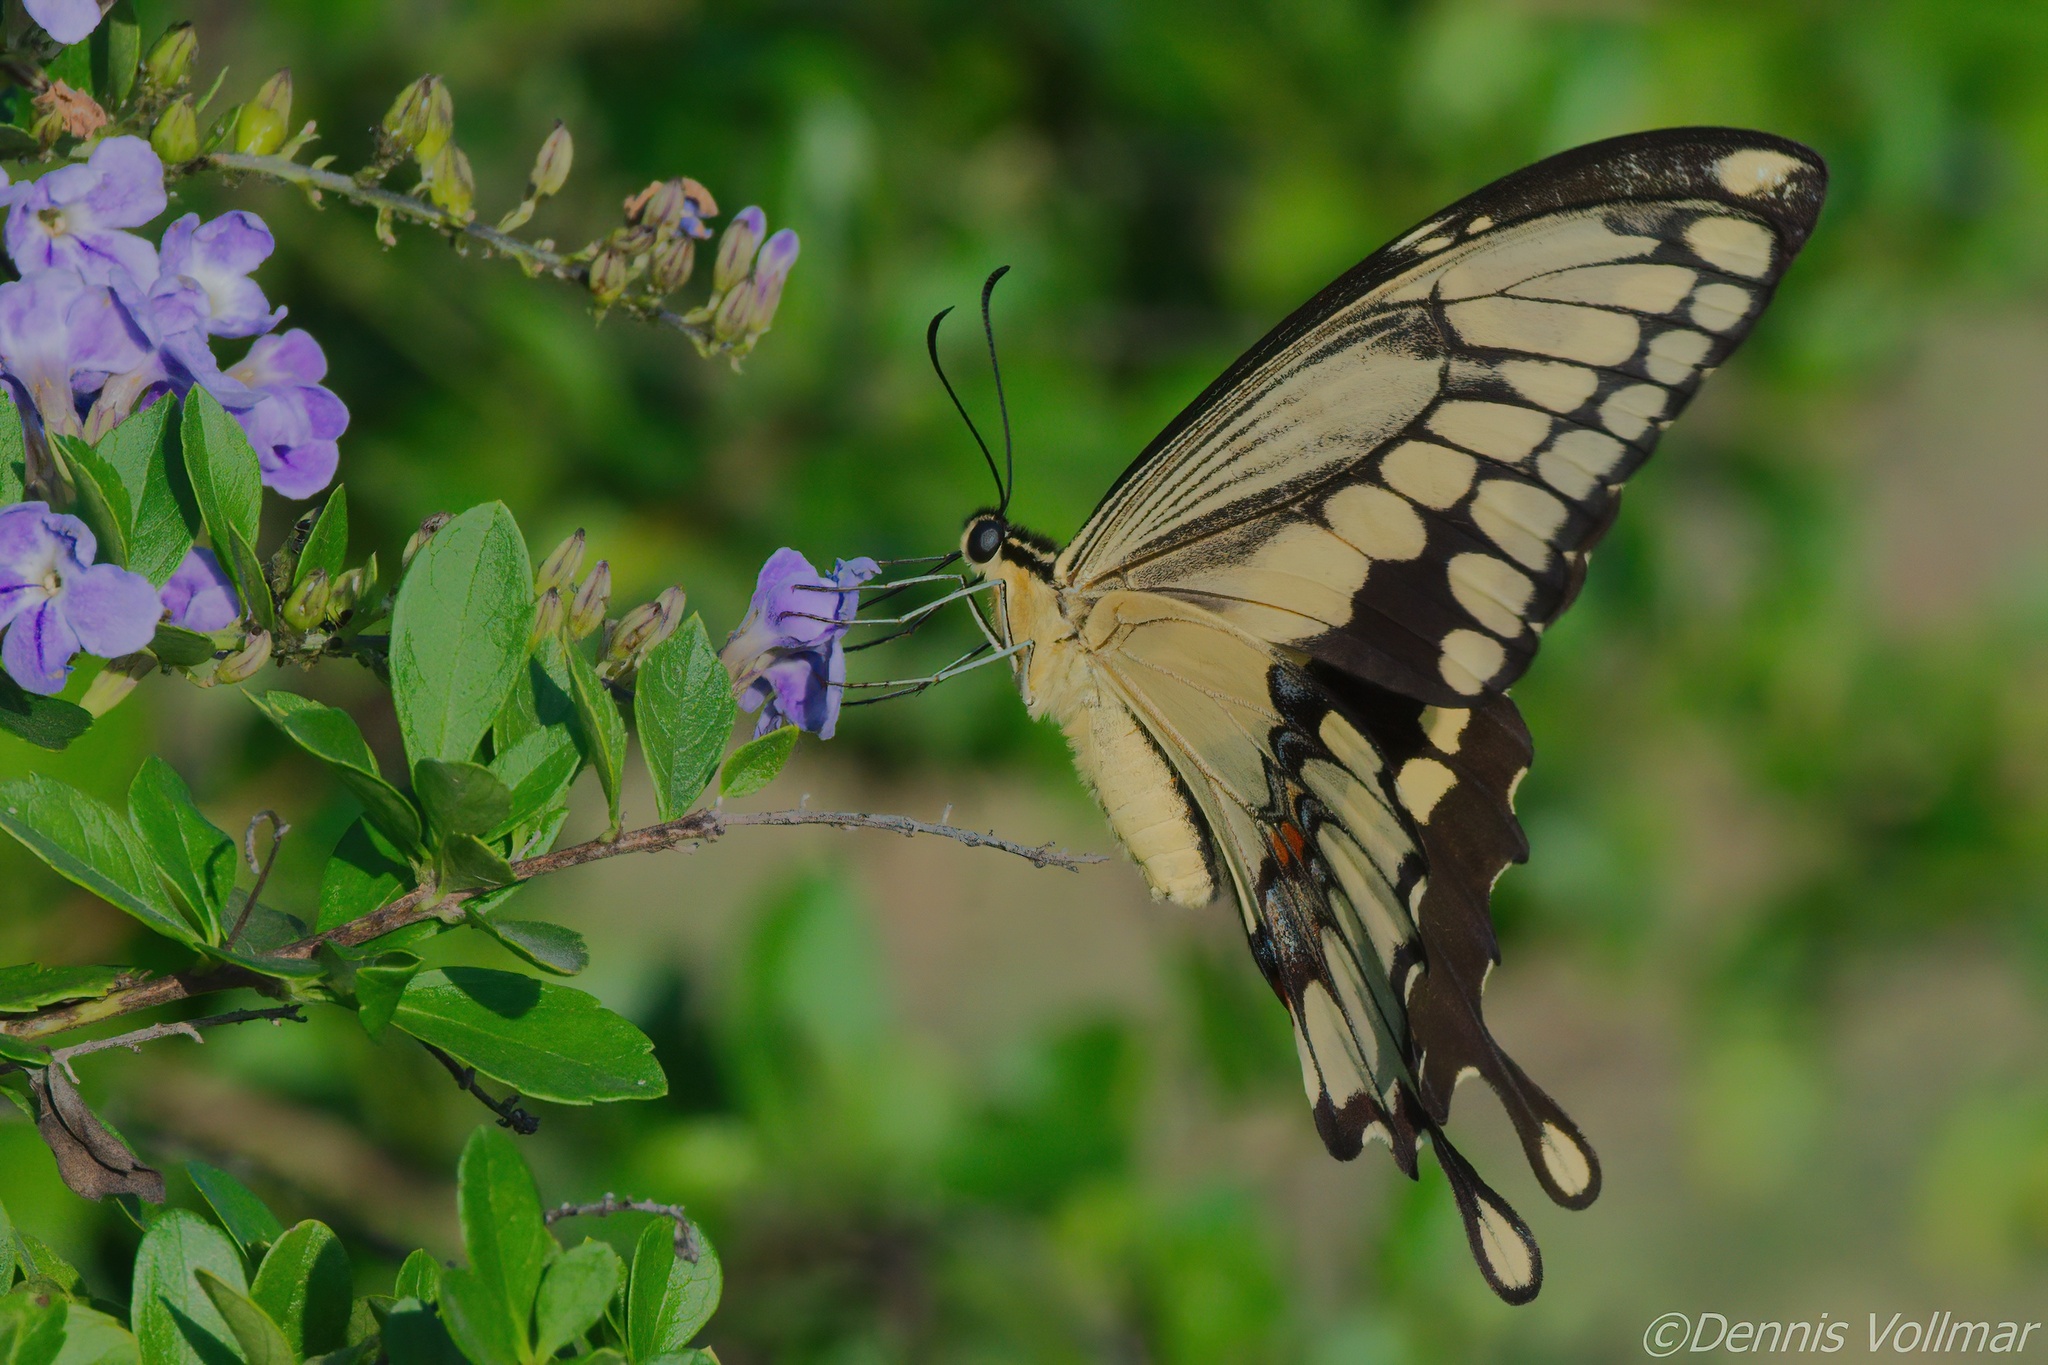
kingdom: Animalia
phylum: Arthropoda
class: Insecta
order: Lepidoptera
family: Papilionidae
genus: Papilio
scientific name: Papilio rumiko
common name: Western giant swallowtail
